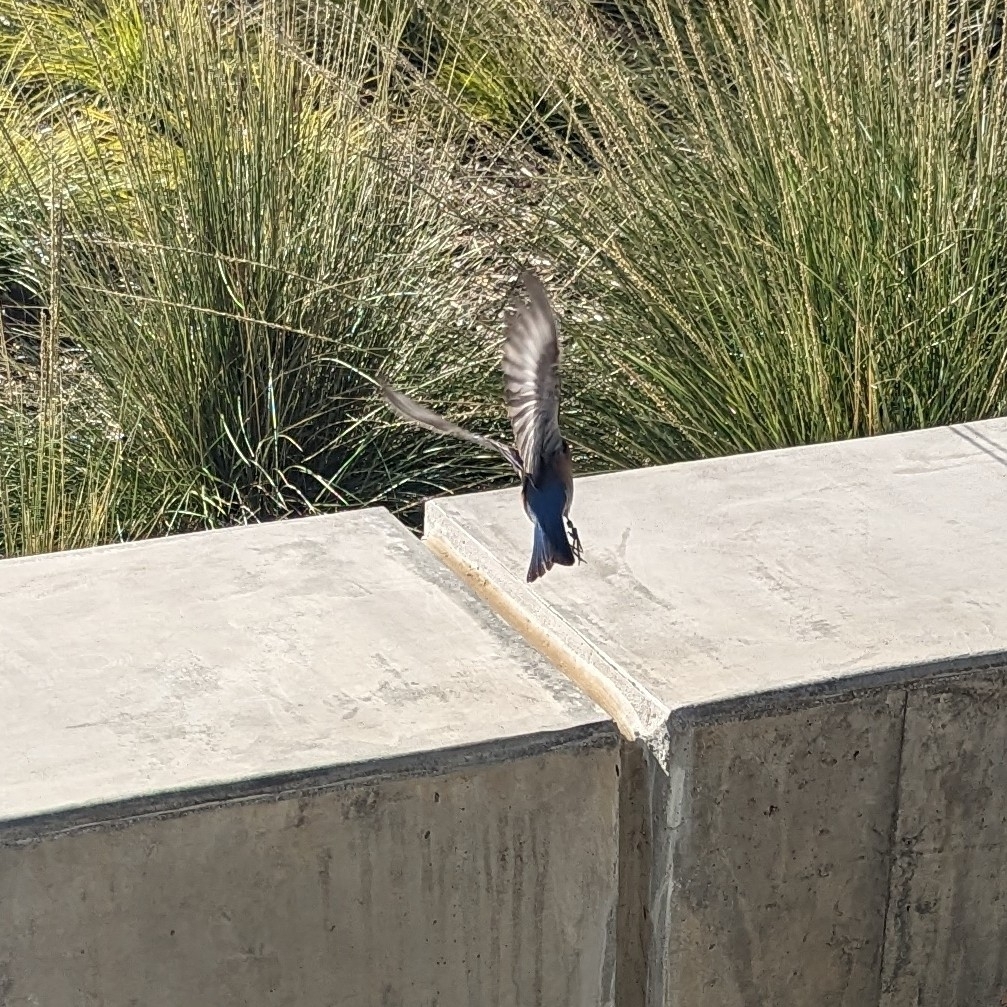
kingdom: Animalia
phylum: Chordata
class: Aves
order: Passeriformes
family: Turdidae
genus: Sialia
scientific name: Sialia mexicana
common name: Western bluebird
